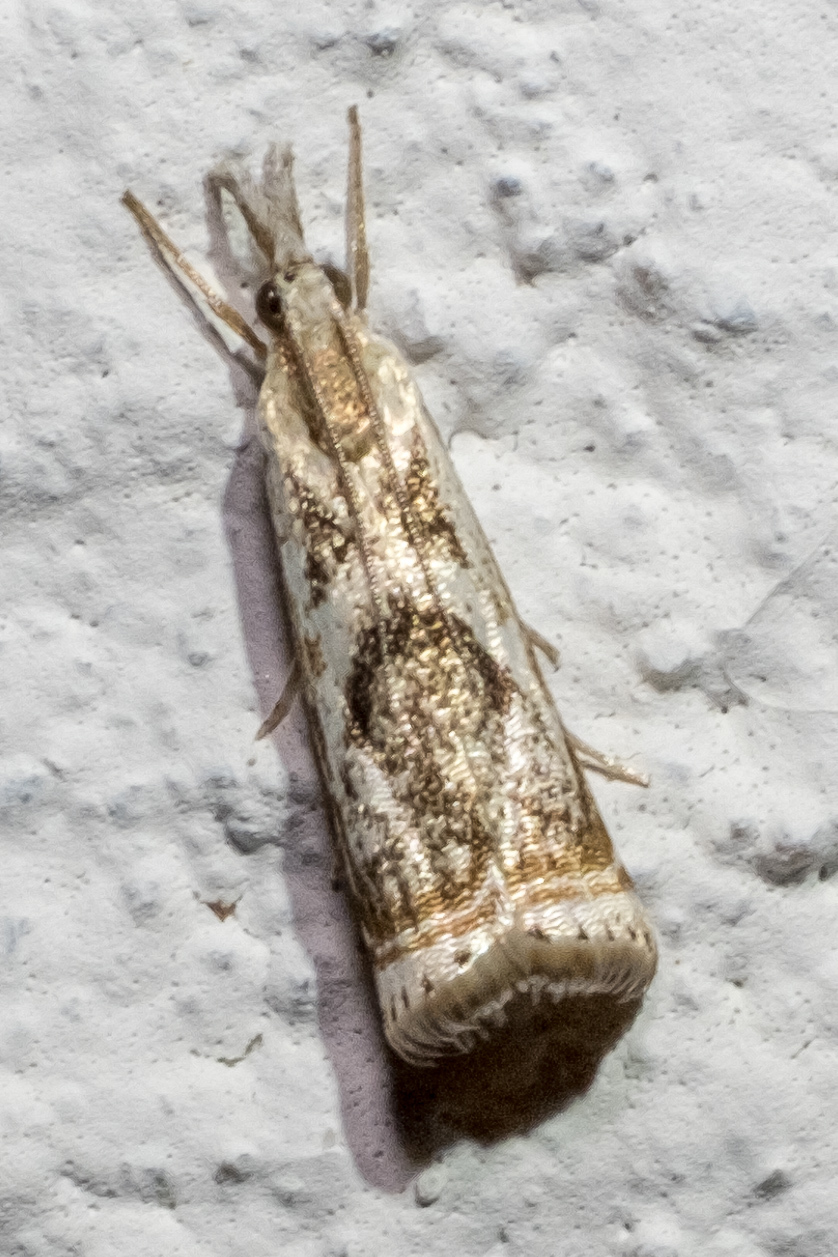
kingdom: Animalia
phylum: Arthropoda
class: Insecta
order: Lepidoptera
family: Crambidae
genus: Microcrambus
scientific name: Microcrambus elegans
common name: Elegant grass-veneer
